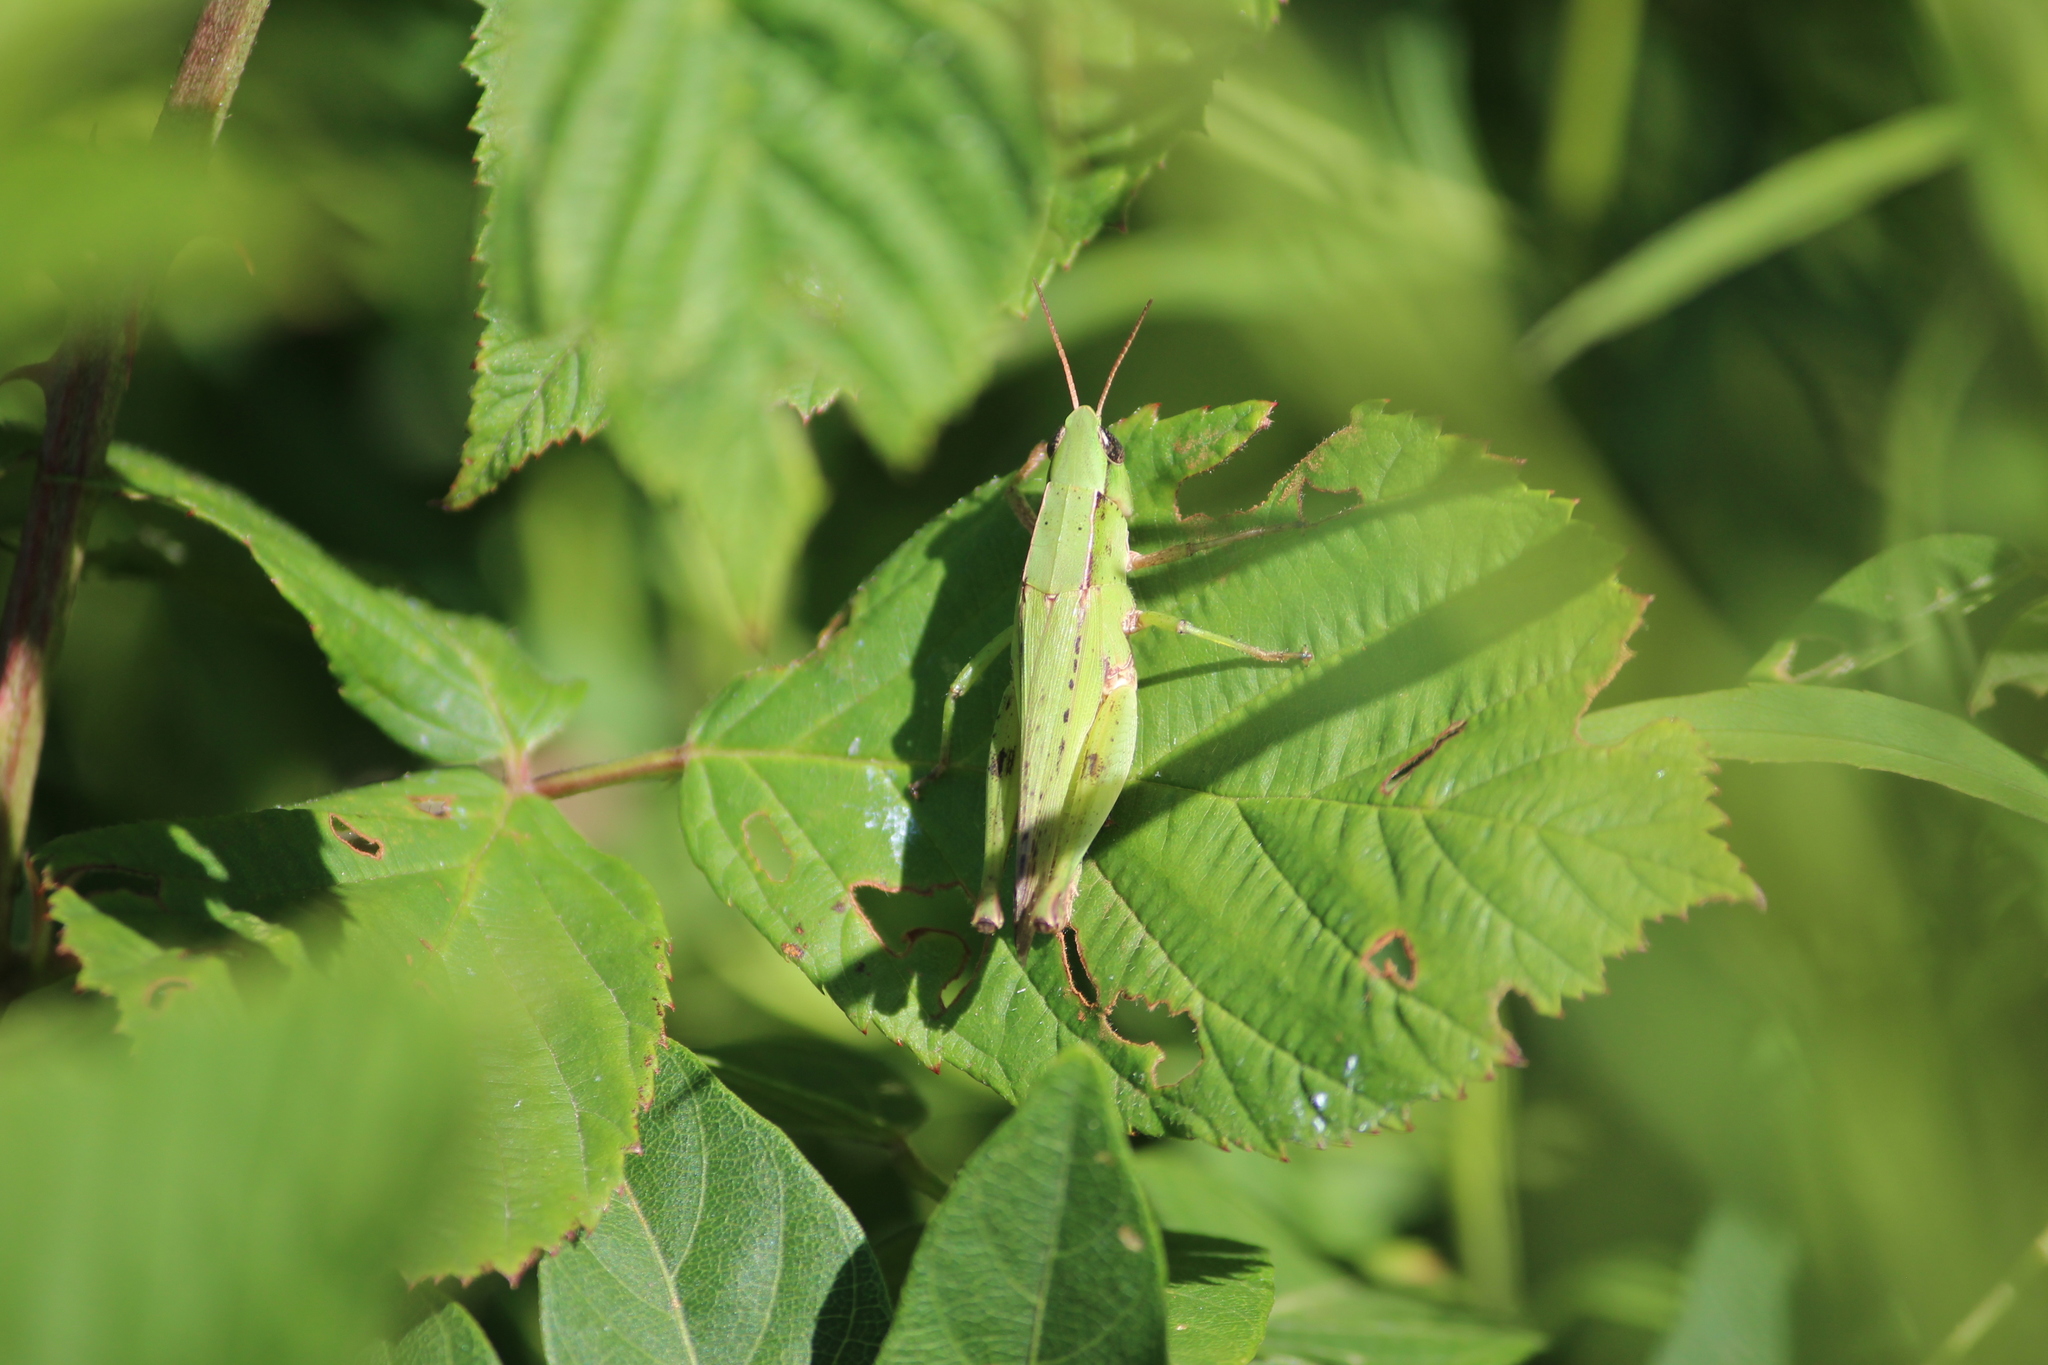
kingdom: Animalia
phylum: Arthropoda
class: Insecta
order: Orthoptera
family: Acrididae
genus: Dichromorpha
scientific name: Dichromorpha viridis
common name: Short-winged green grasshopper
